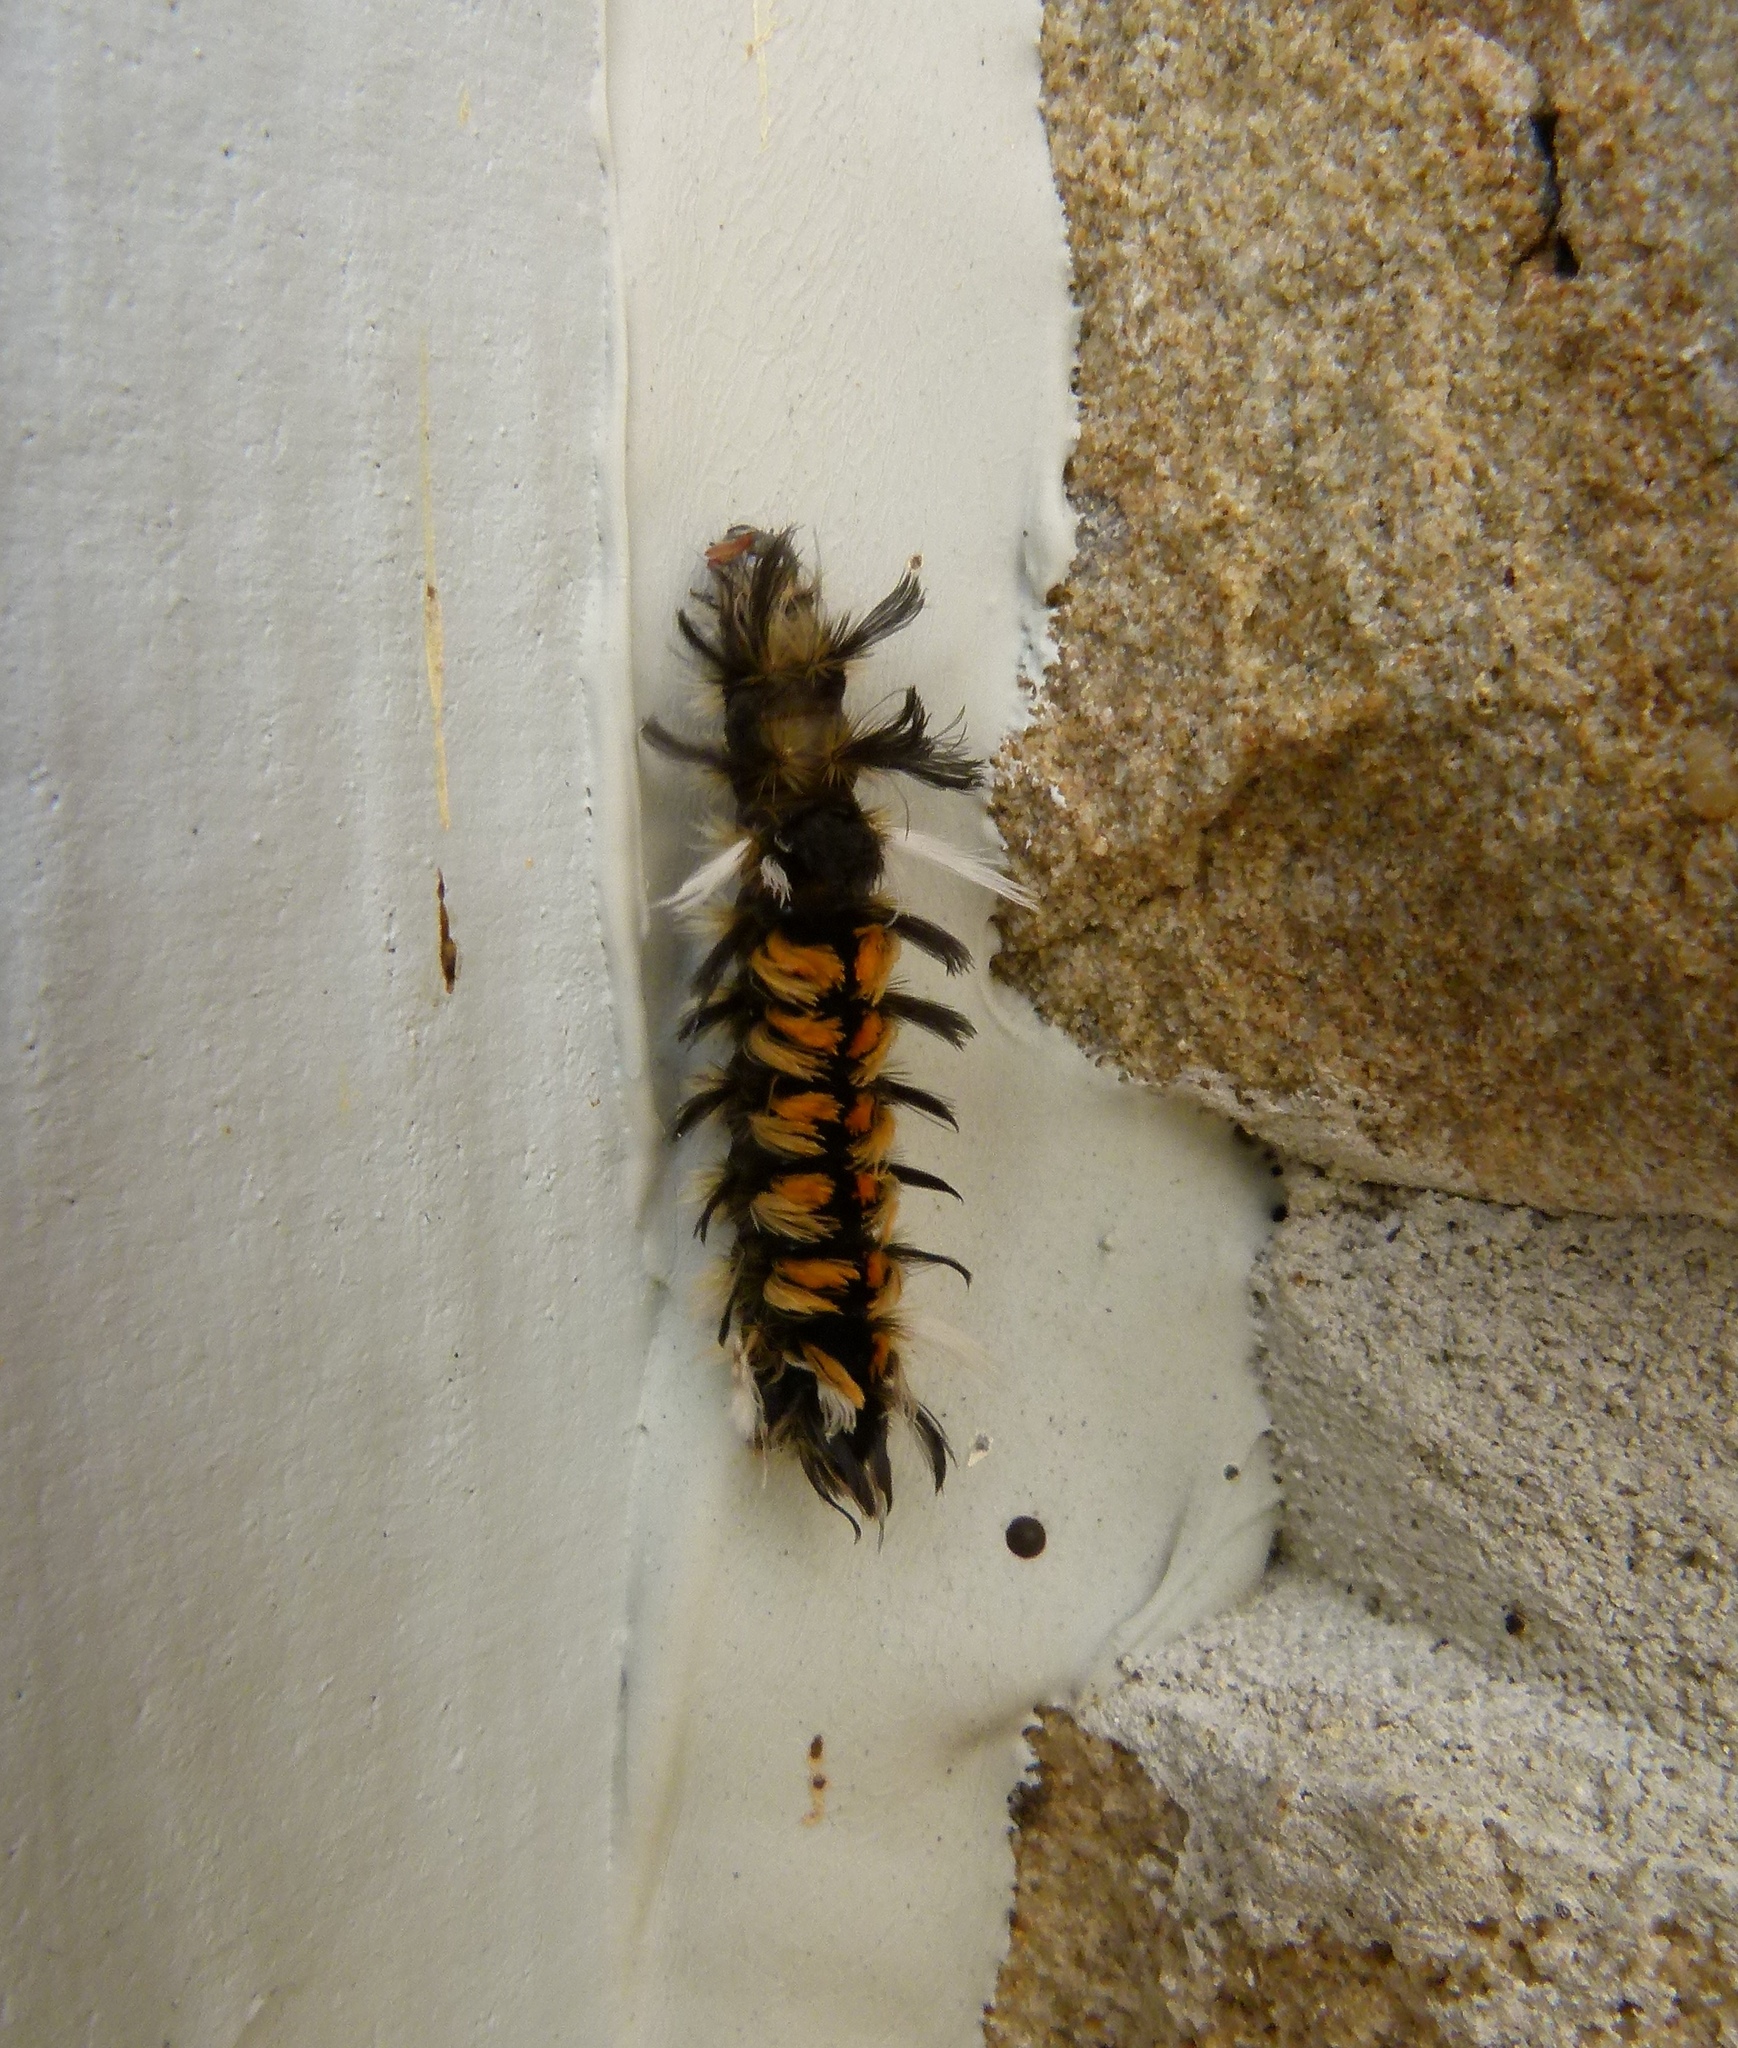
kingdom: Animalia
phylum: Arthropoda
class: Insecta
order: Lepidoptera
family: Erebidae
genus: Euchaetes
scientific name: Euchaetes egle
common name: Milkweed tussock moth
